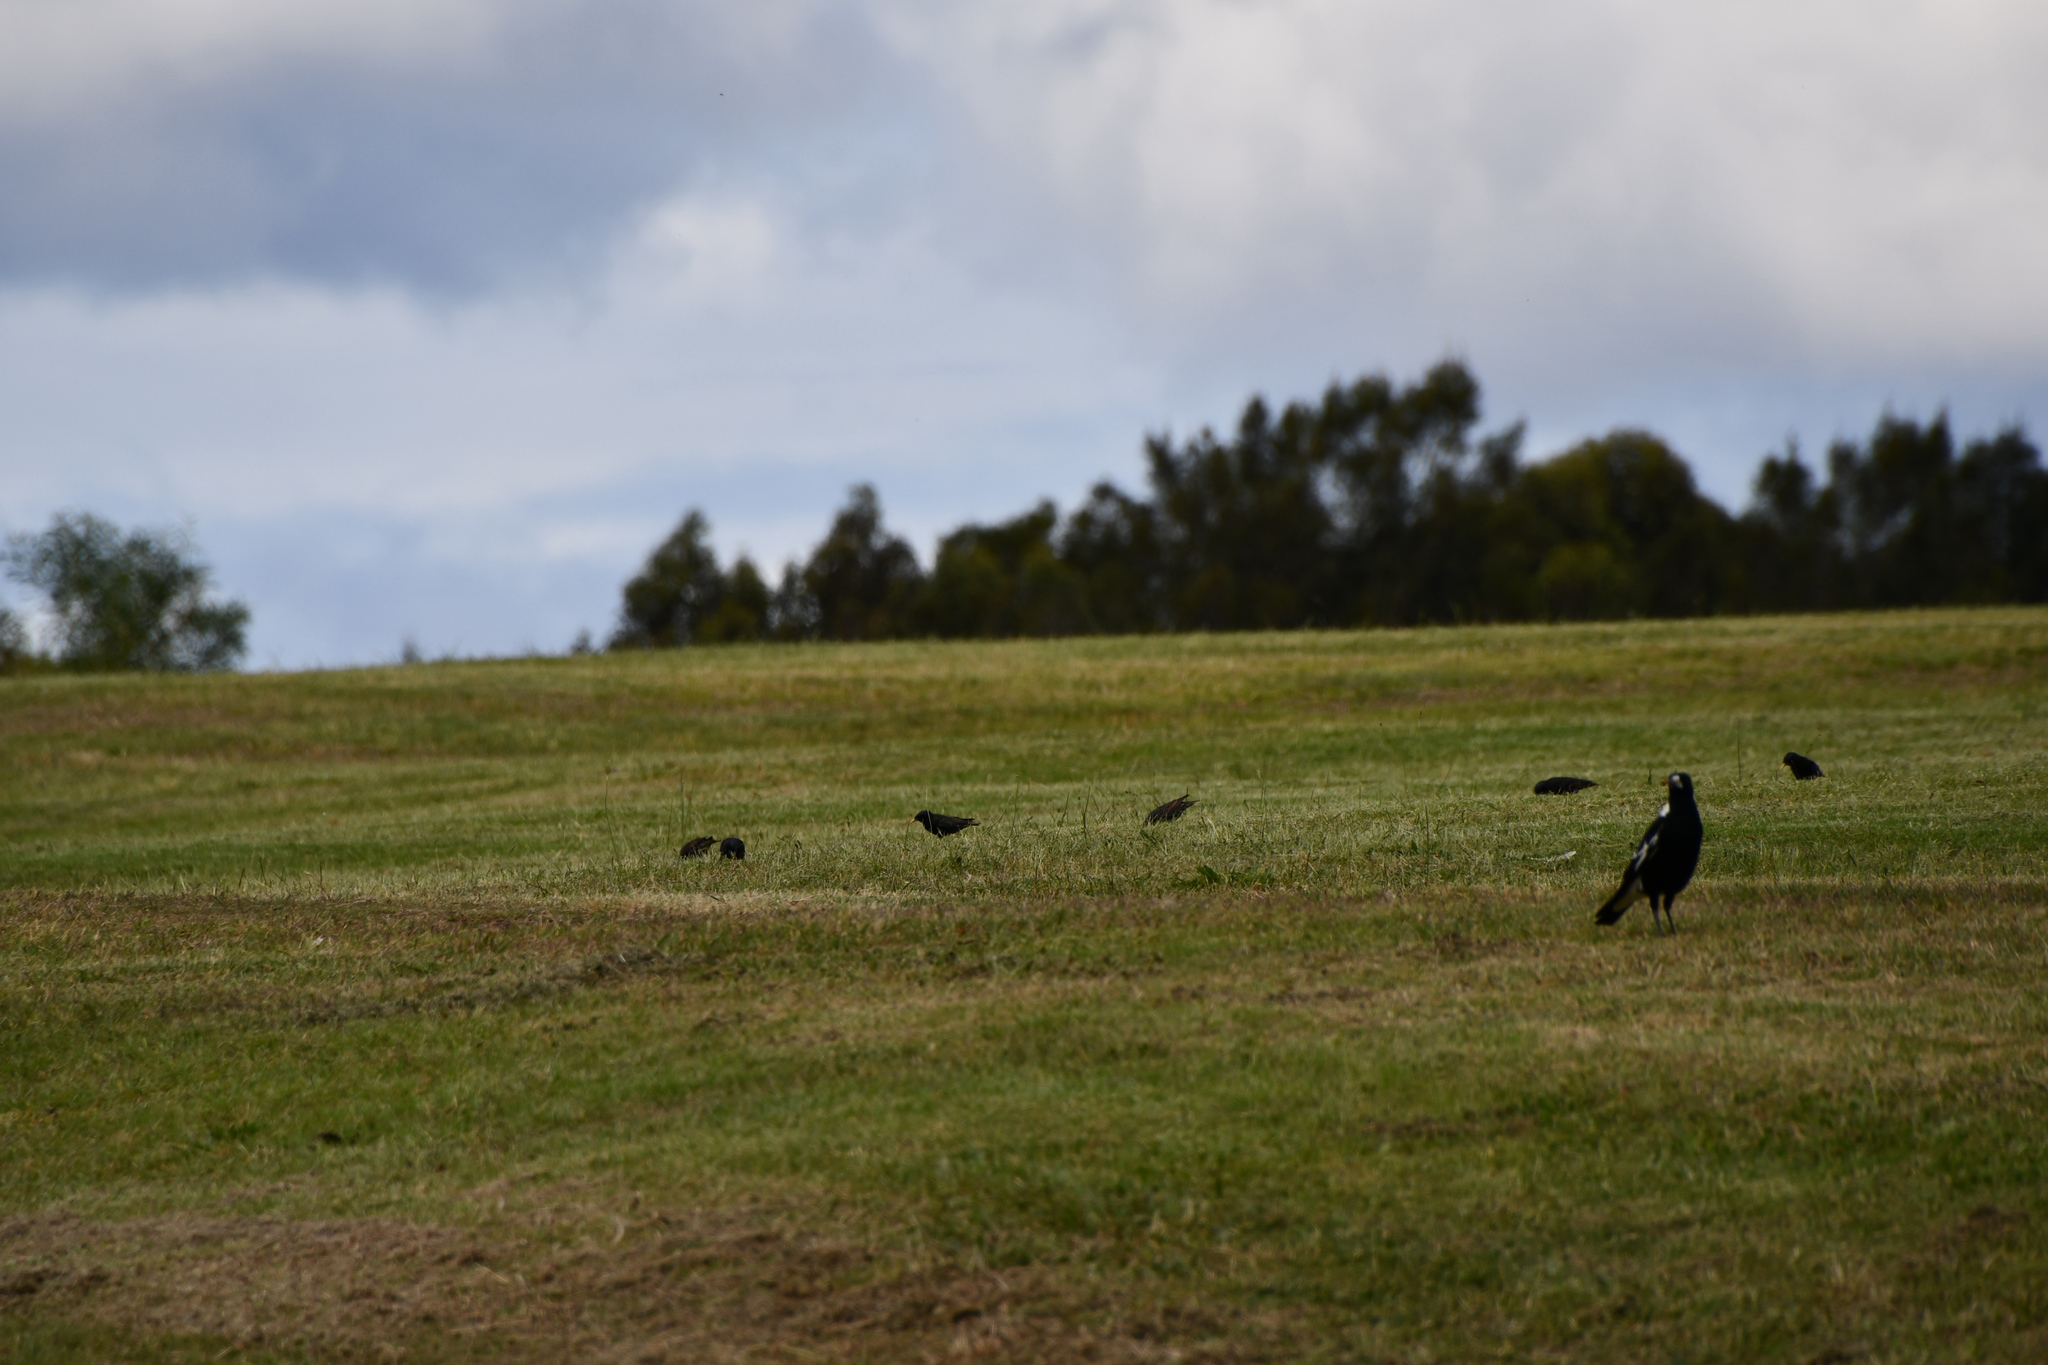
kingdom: Animalia
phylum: Chordata
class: Aves
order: Passeriformes
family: Sturnidae
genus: Sturnus
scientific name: Sturnus vulgaris
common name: Common starling
